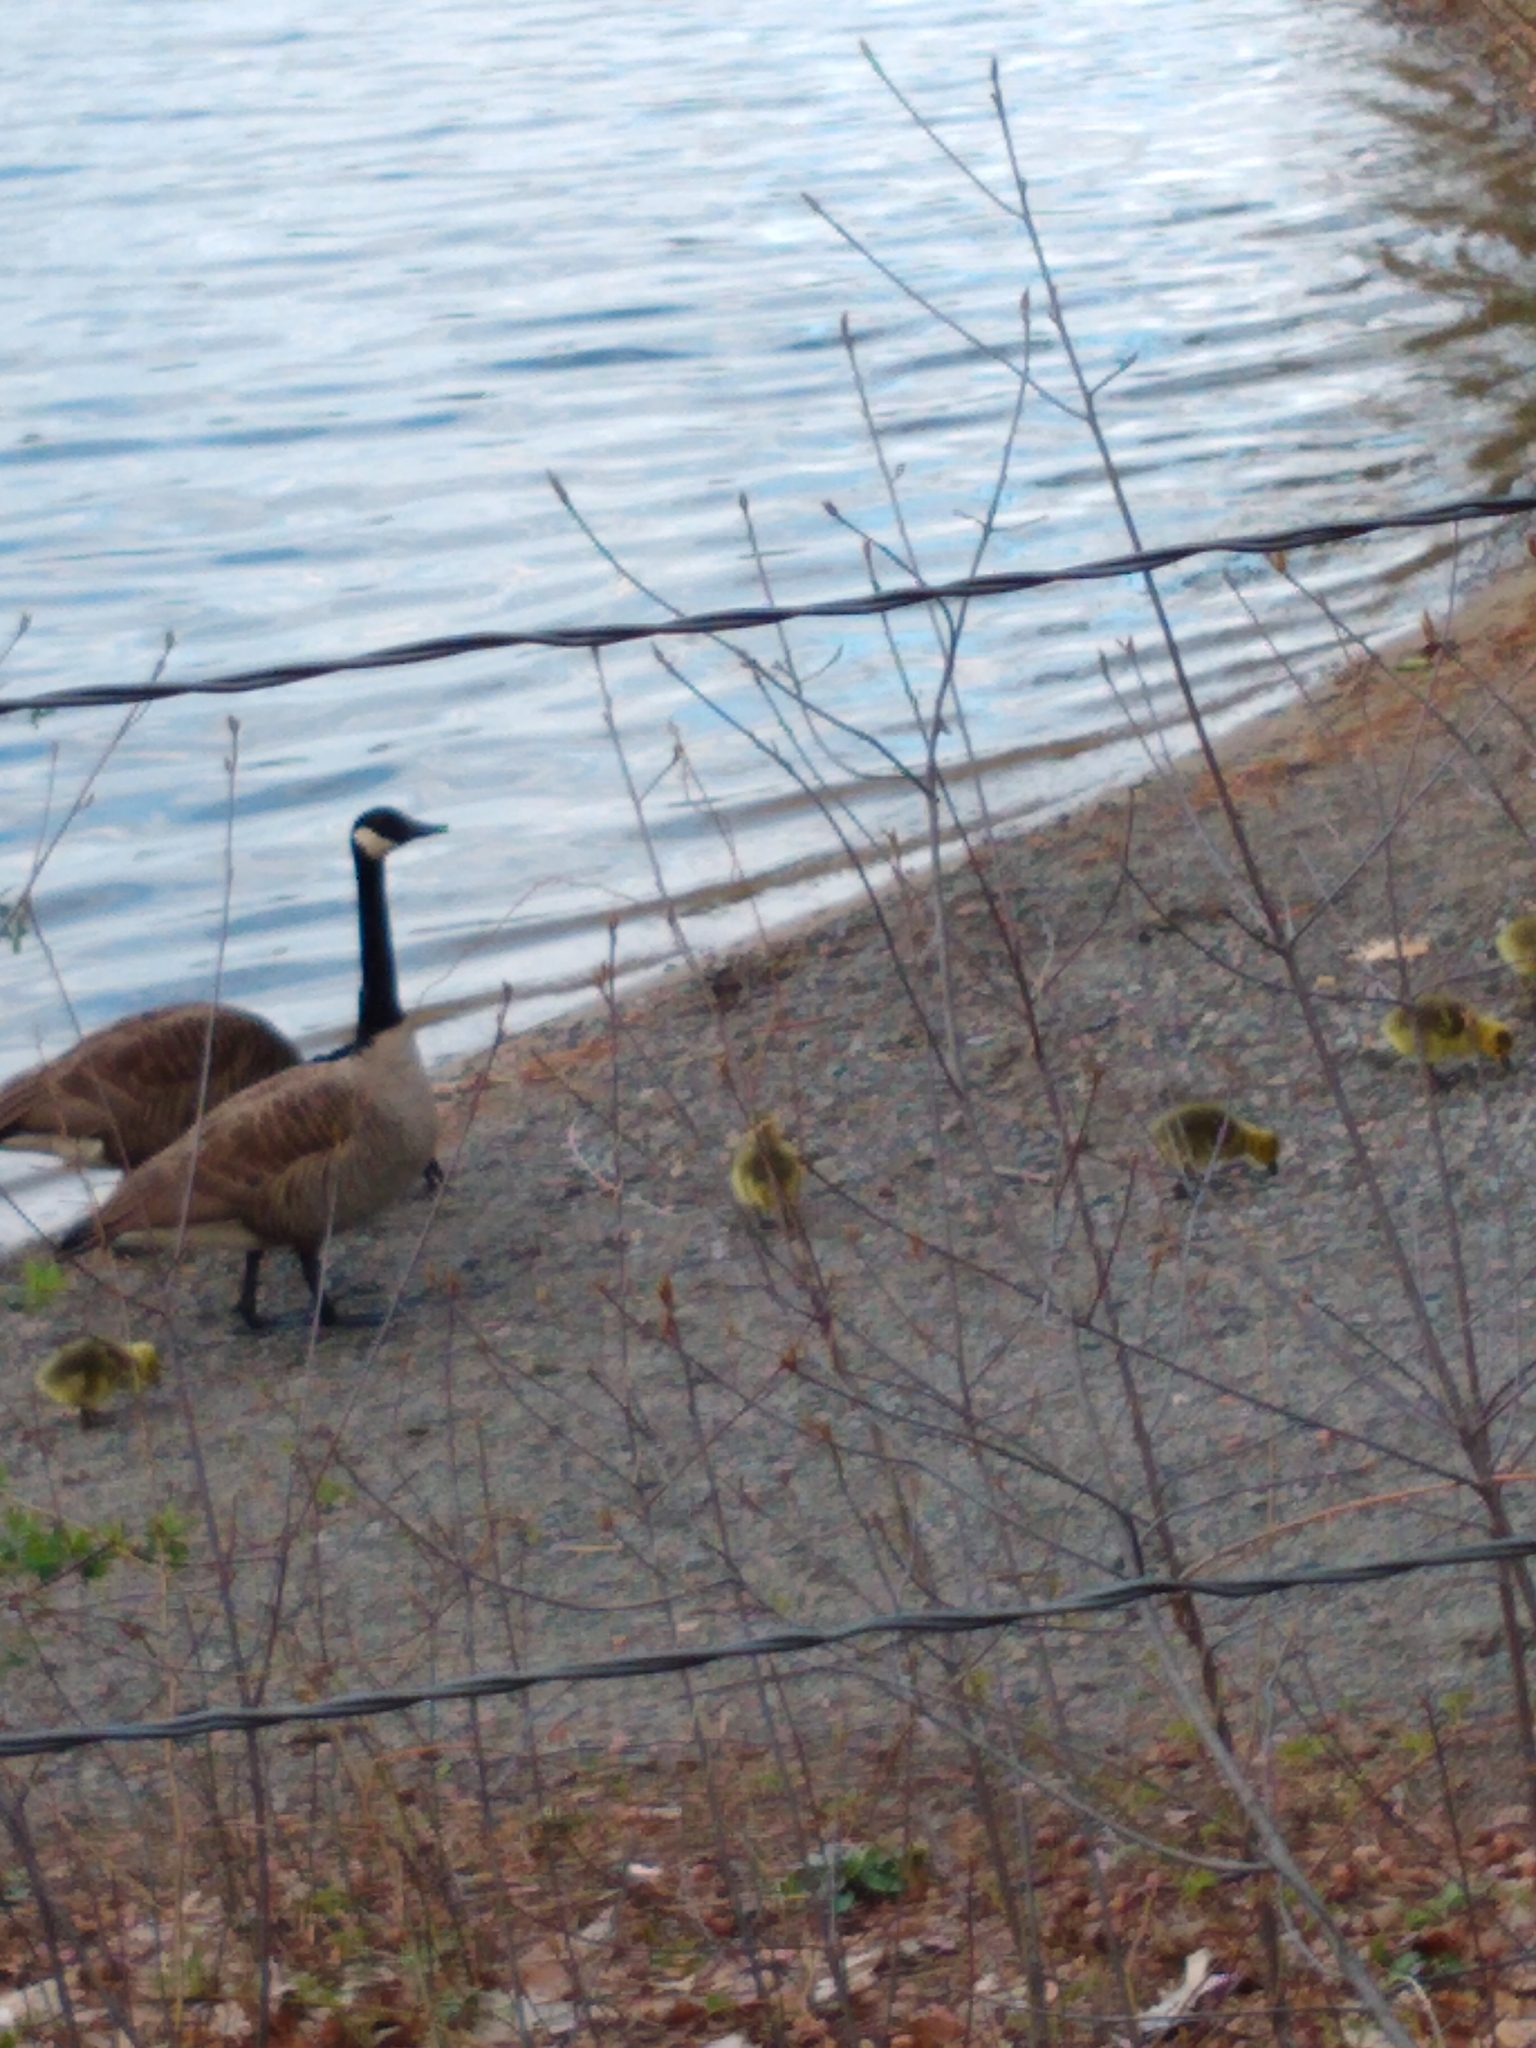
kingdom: Animalia
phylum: Chordata
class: Aves
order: Anseriformes
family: Anatidae
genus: Branta
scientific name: Branta canadensis
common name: Canada goose
